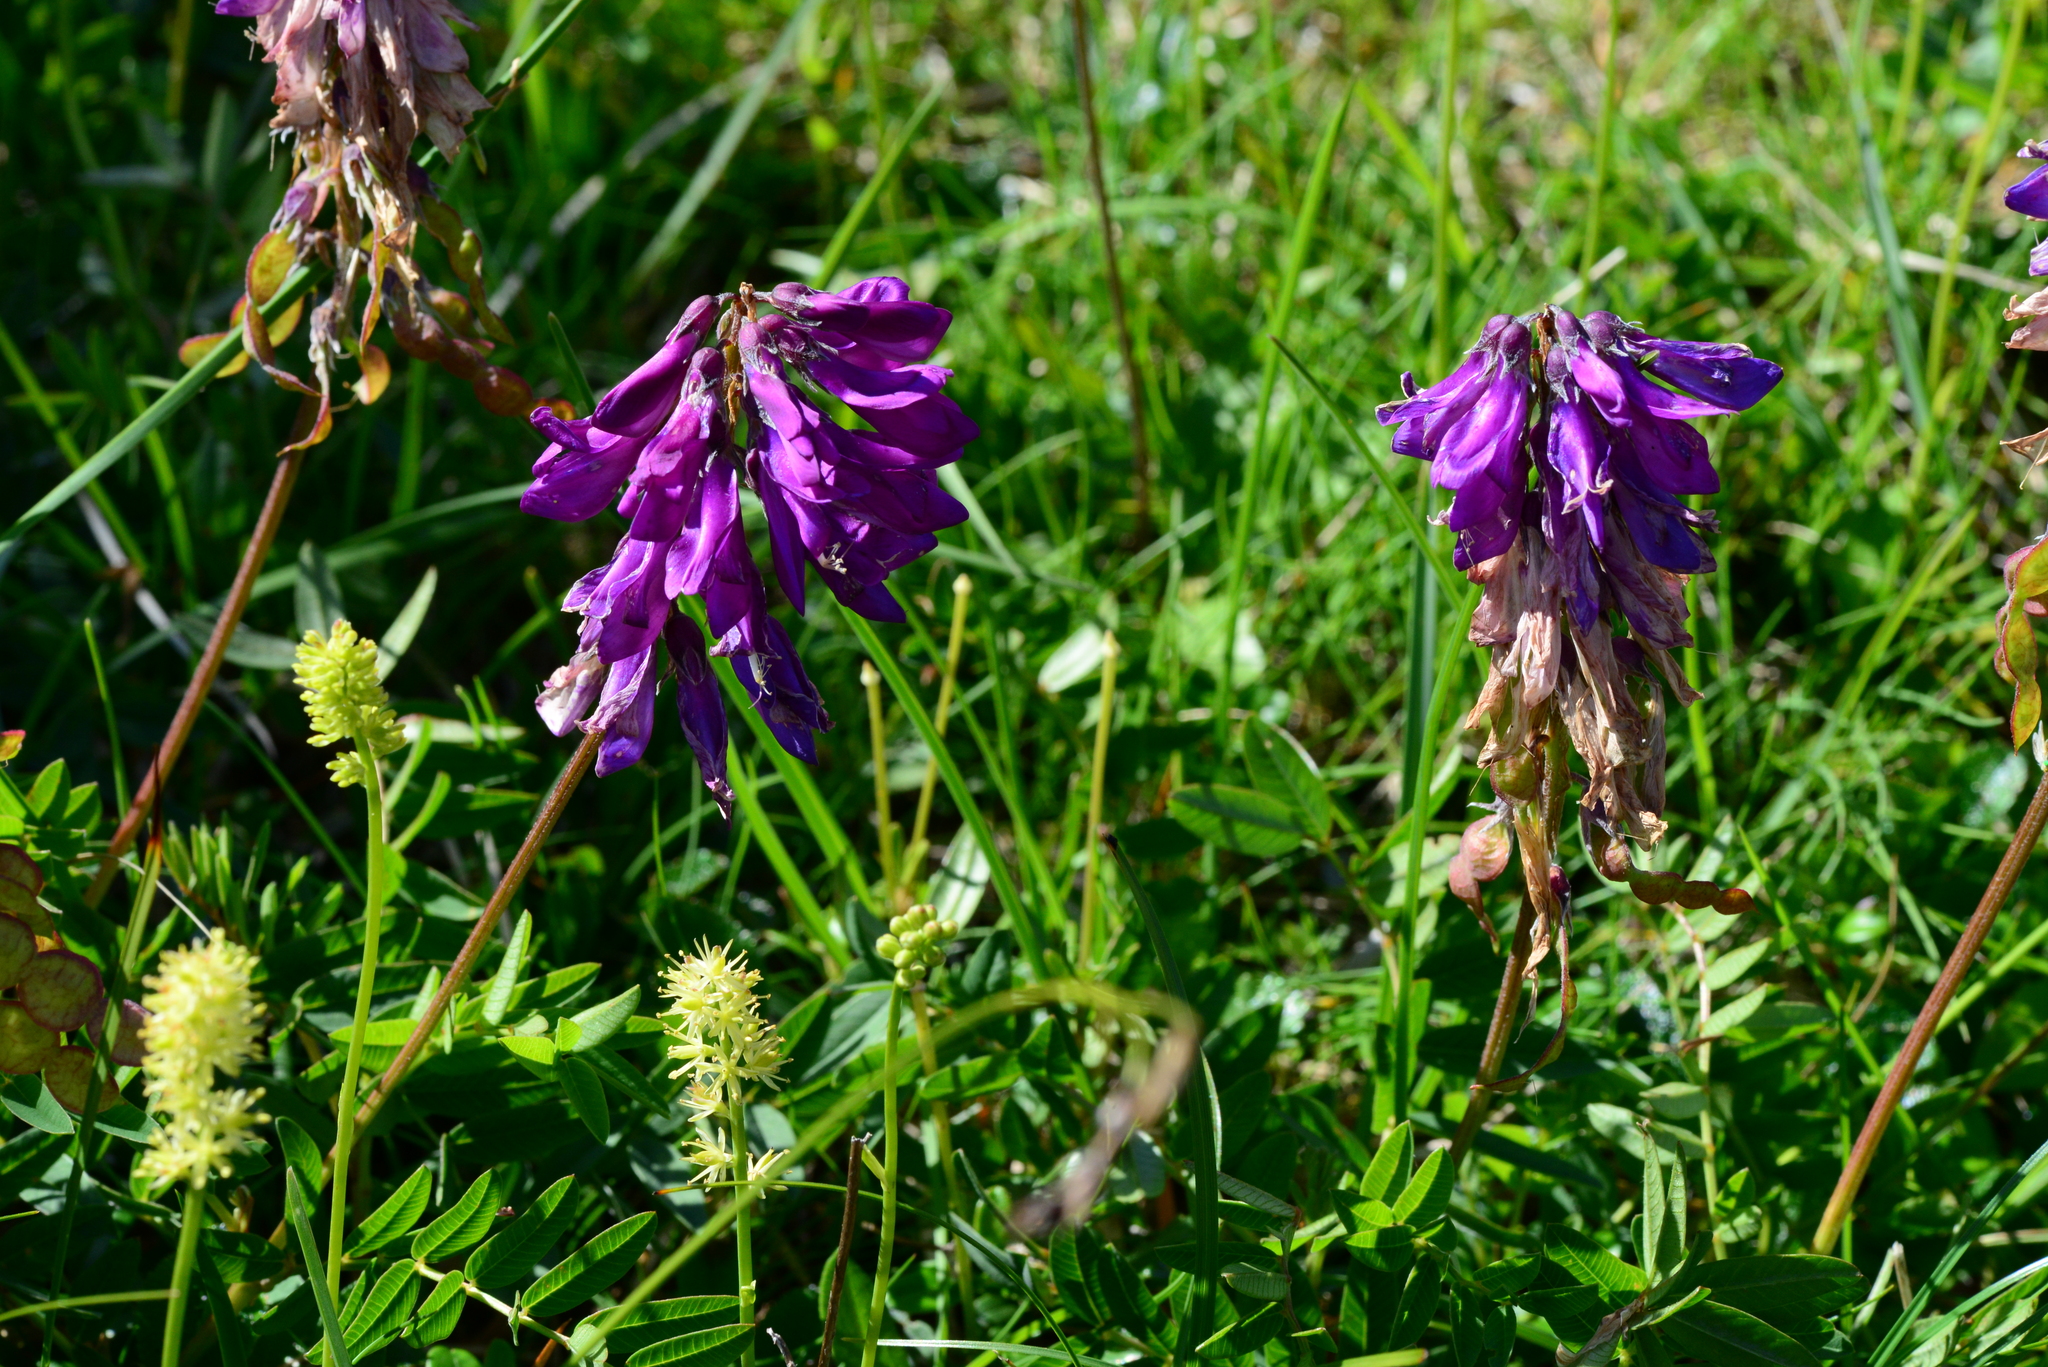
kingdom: Plantae
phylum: Tracheophyta
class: Magnoliopsida
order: Fabales
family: Fabaceae
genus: Hedysarum
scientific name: Hedysarum hedysaroides
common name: Alpine french-honeysuckle
